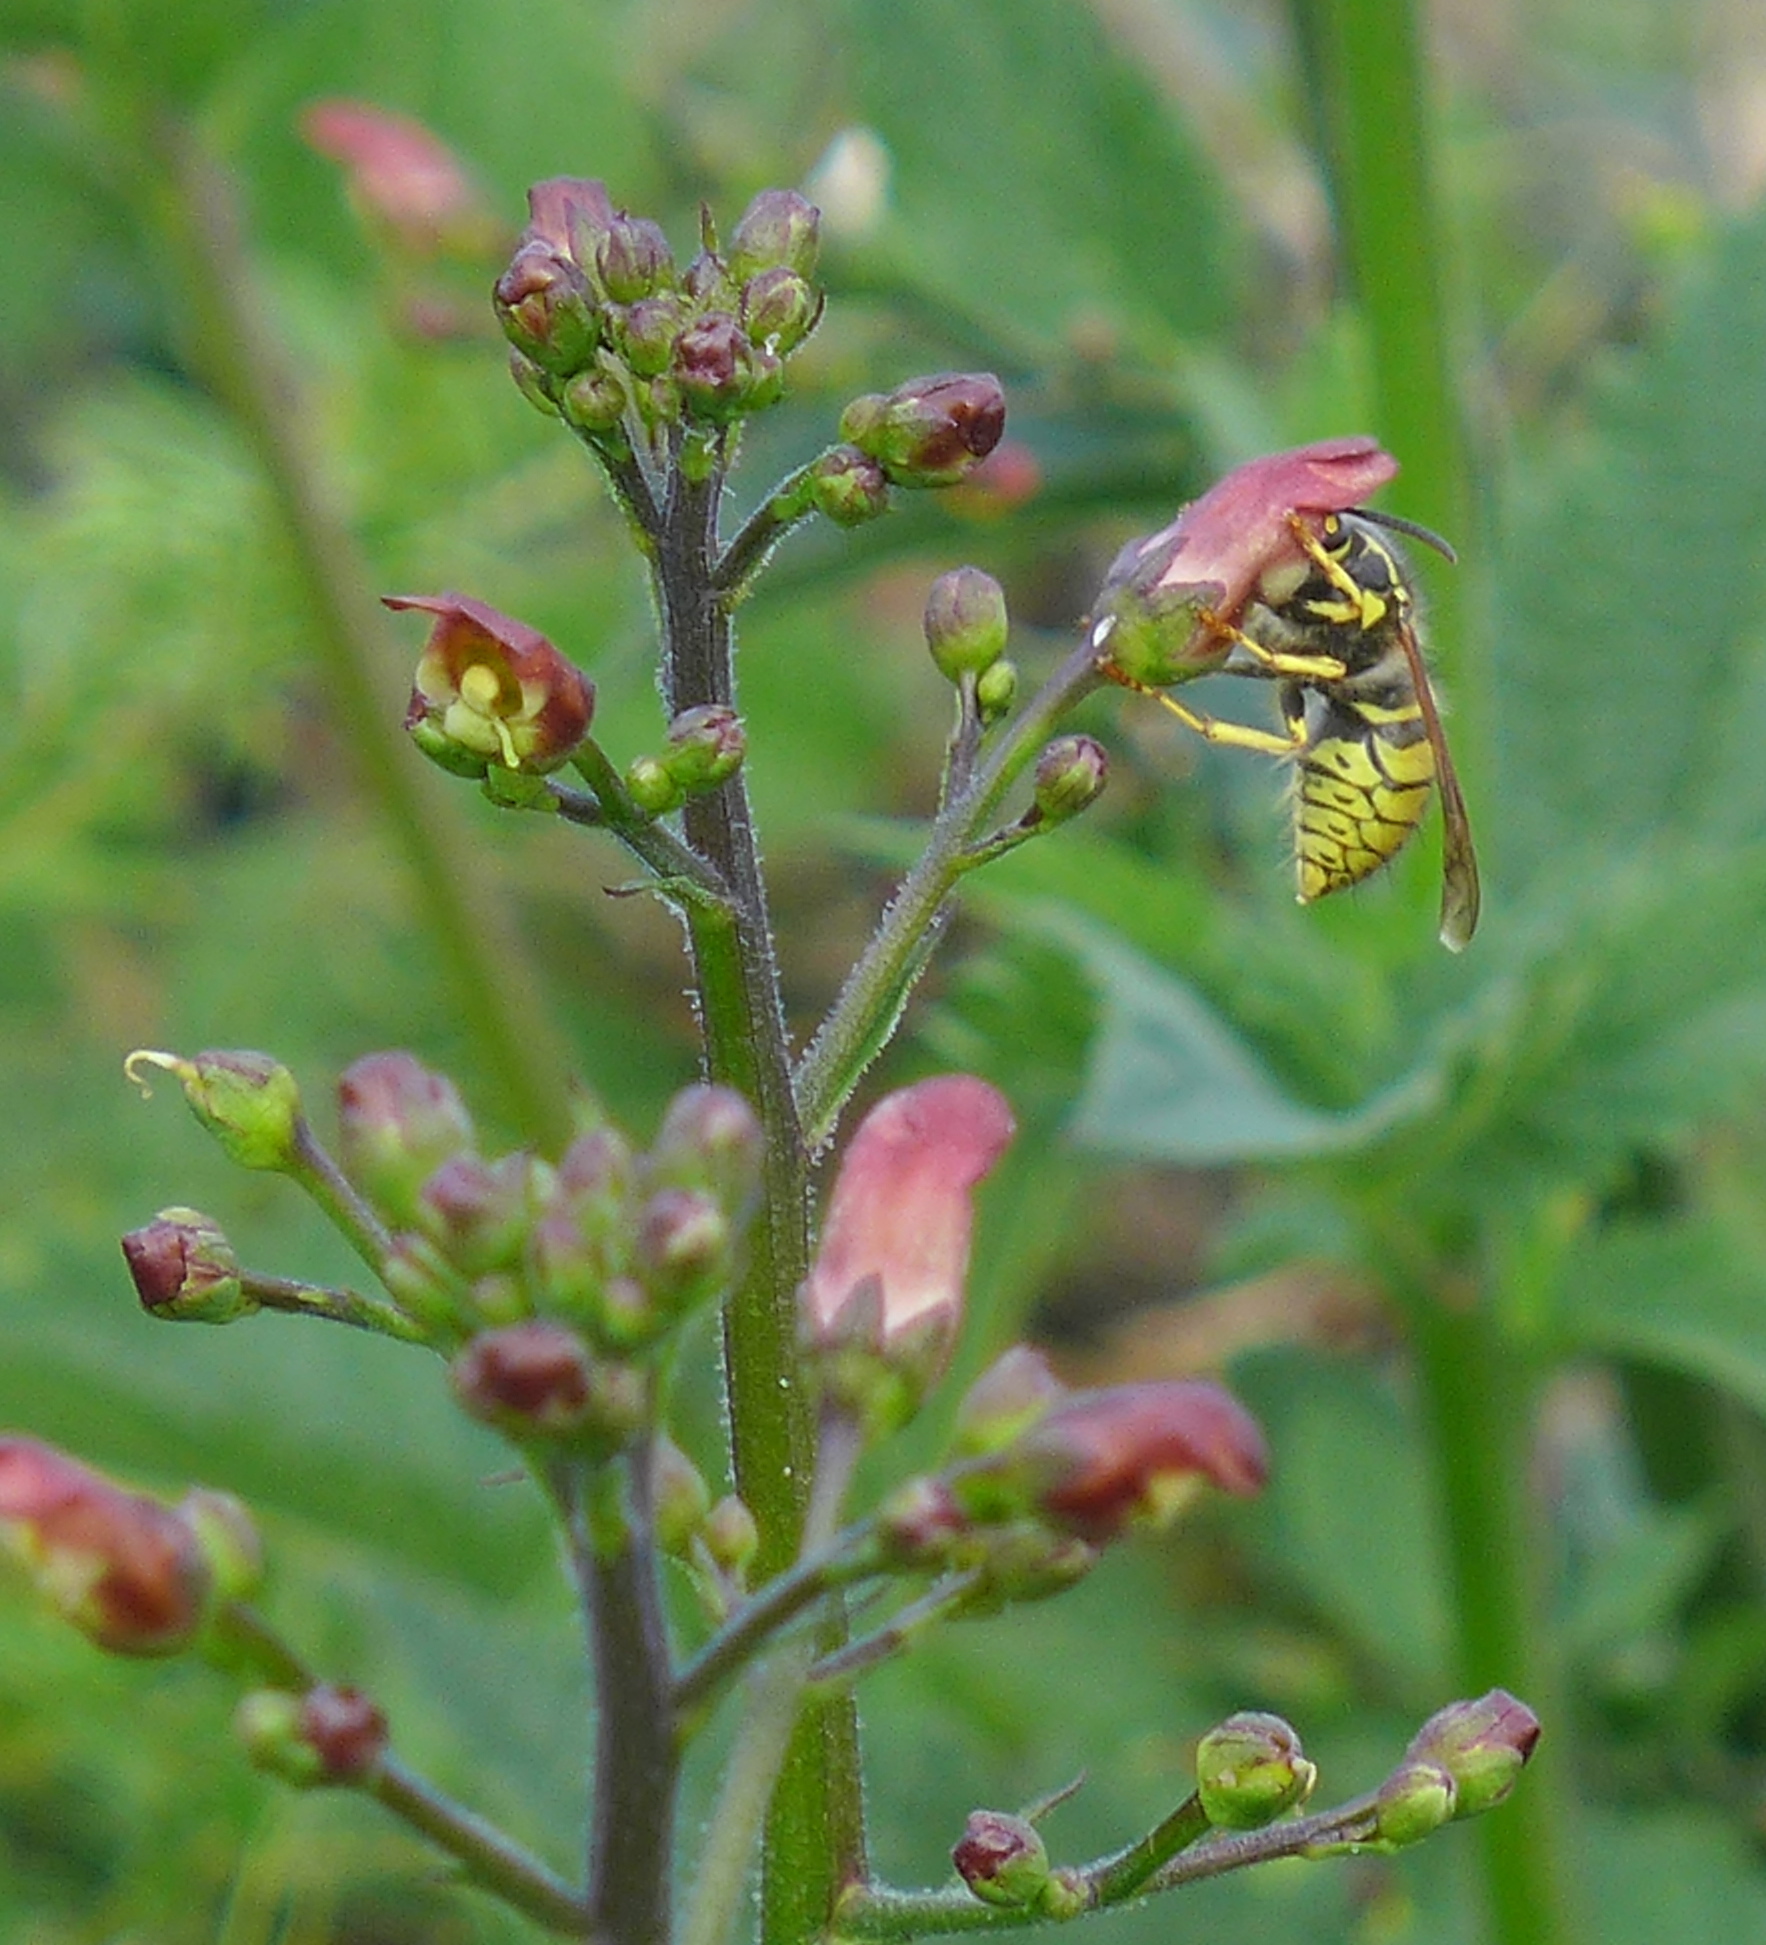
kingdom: Animalia
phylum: Arthropoda
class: Insecta
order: Hymenoptera
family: Vespidae
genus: Dolichovespula
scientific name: Dolichovespula arenaria
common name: Aerial yellowjacket
